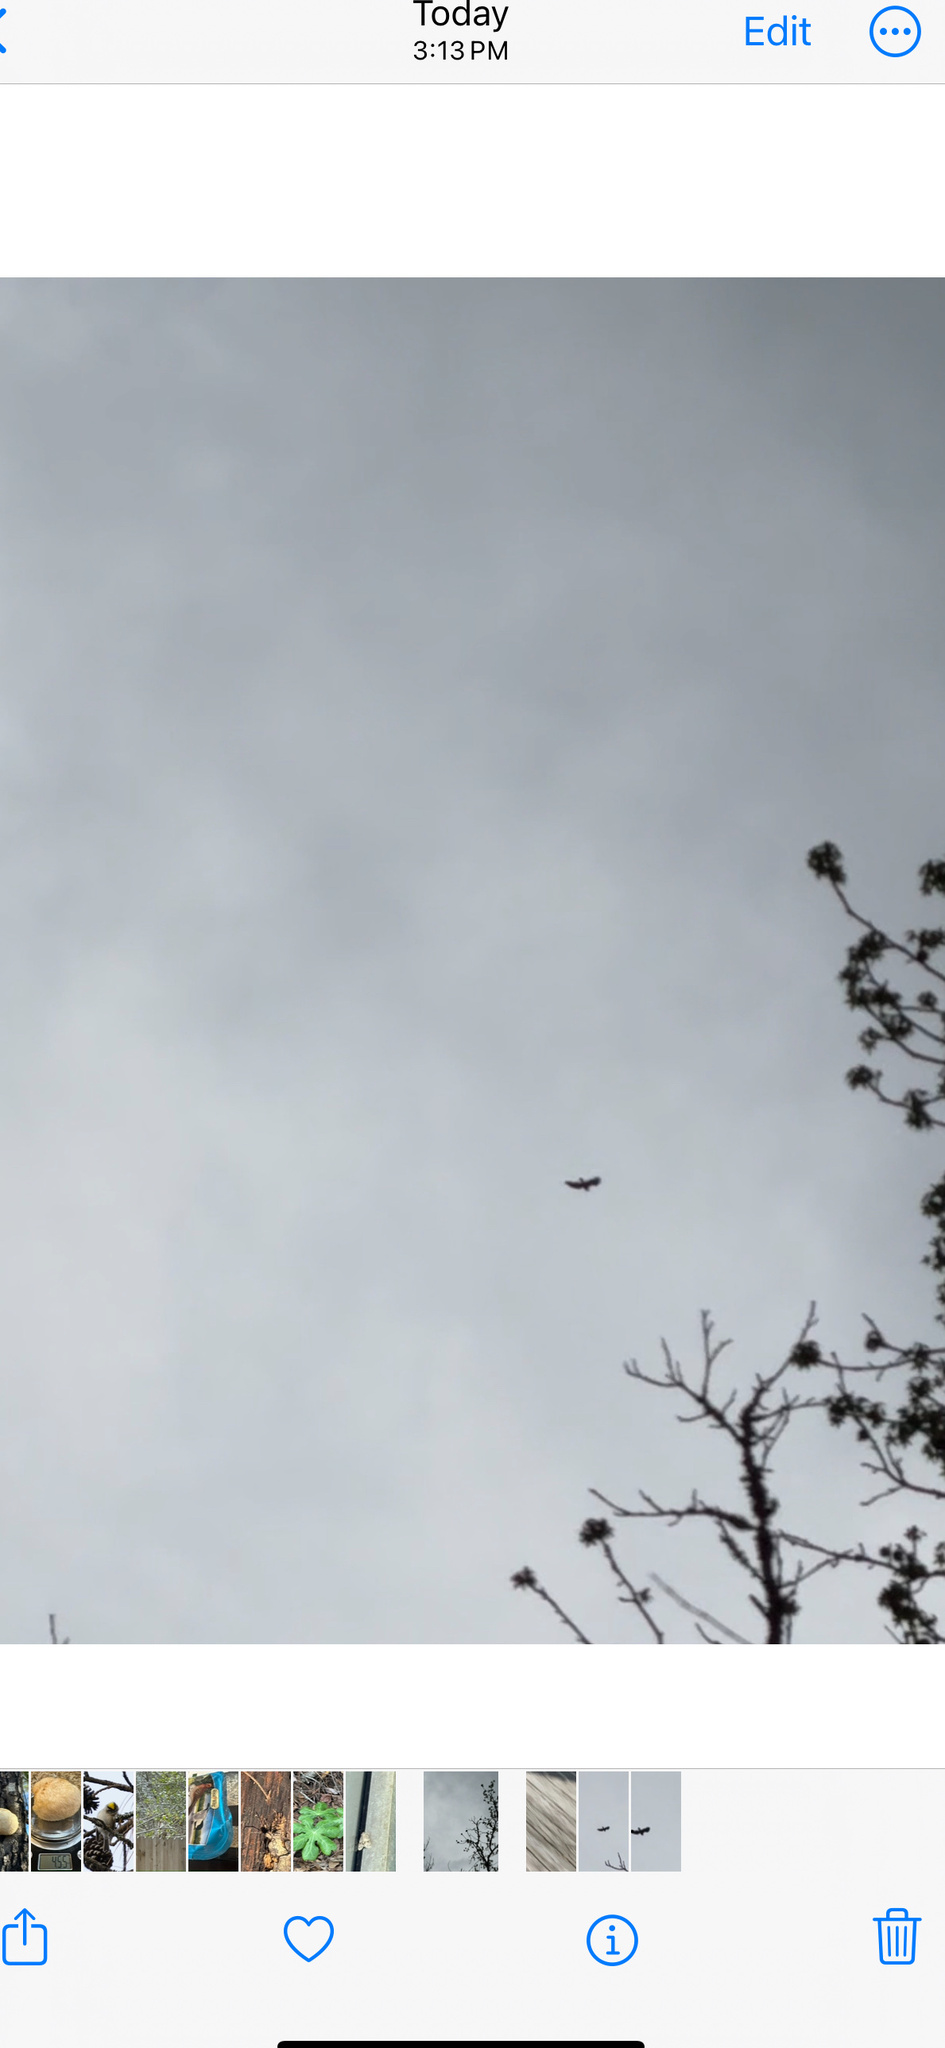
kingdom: Animalia
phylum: Chordata
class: Aves
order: Accipitriformes
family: Cathartidae
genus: Cathartes
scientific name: Cathartes aura
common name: Turkey vulture
